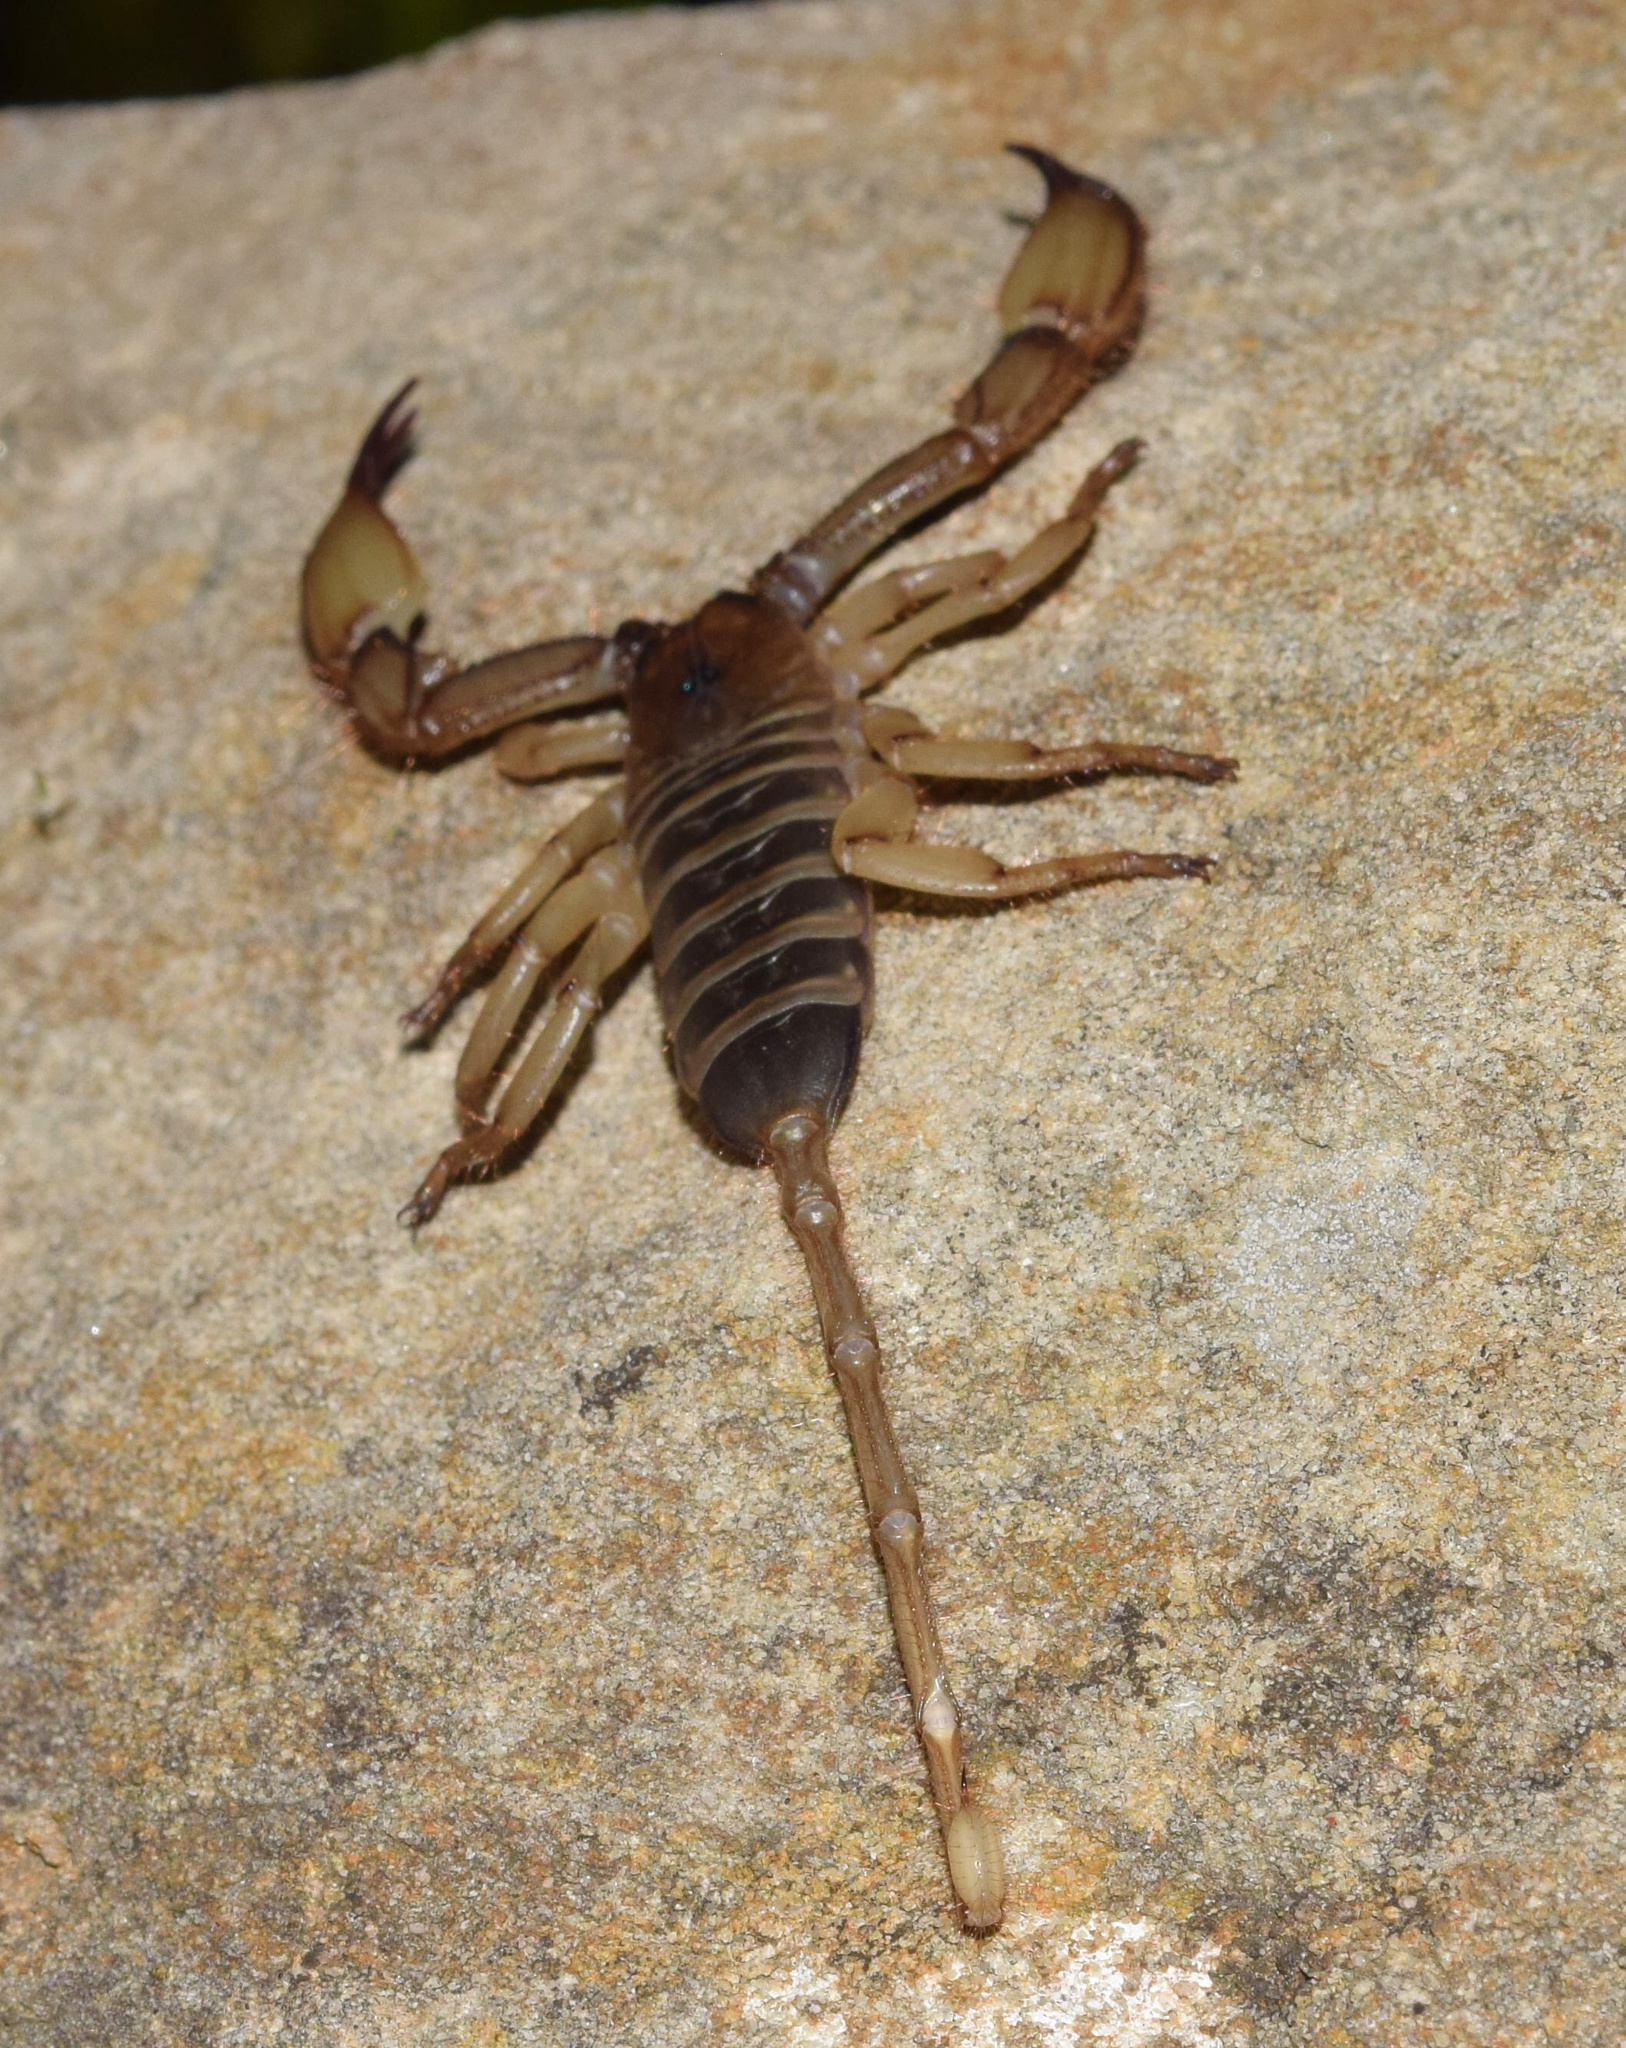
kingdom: Animalia
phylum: Arthropoda
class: Arachnida
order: Scorpiones
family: Hormuridae
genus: Hadogenes
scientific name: Hadogenes trichiurus
